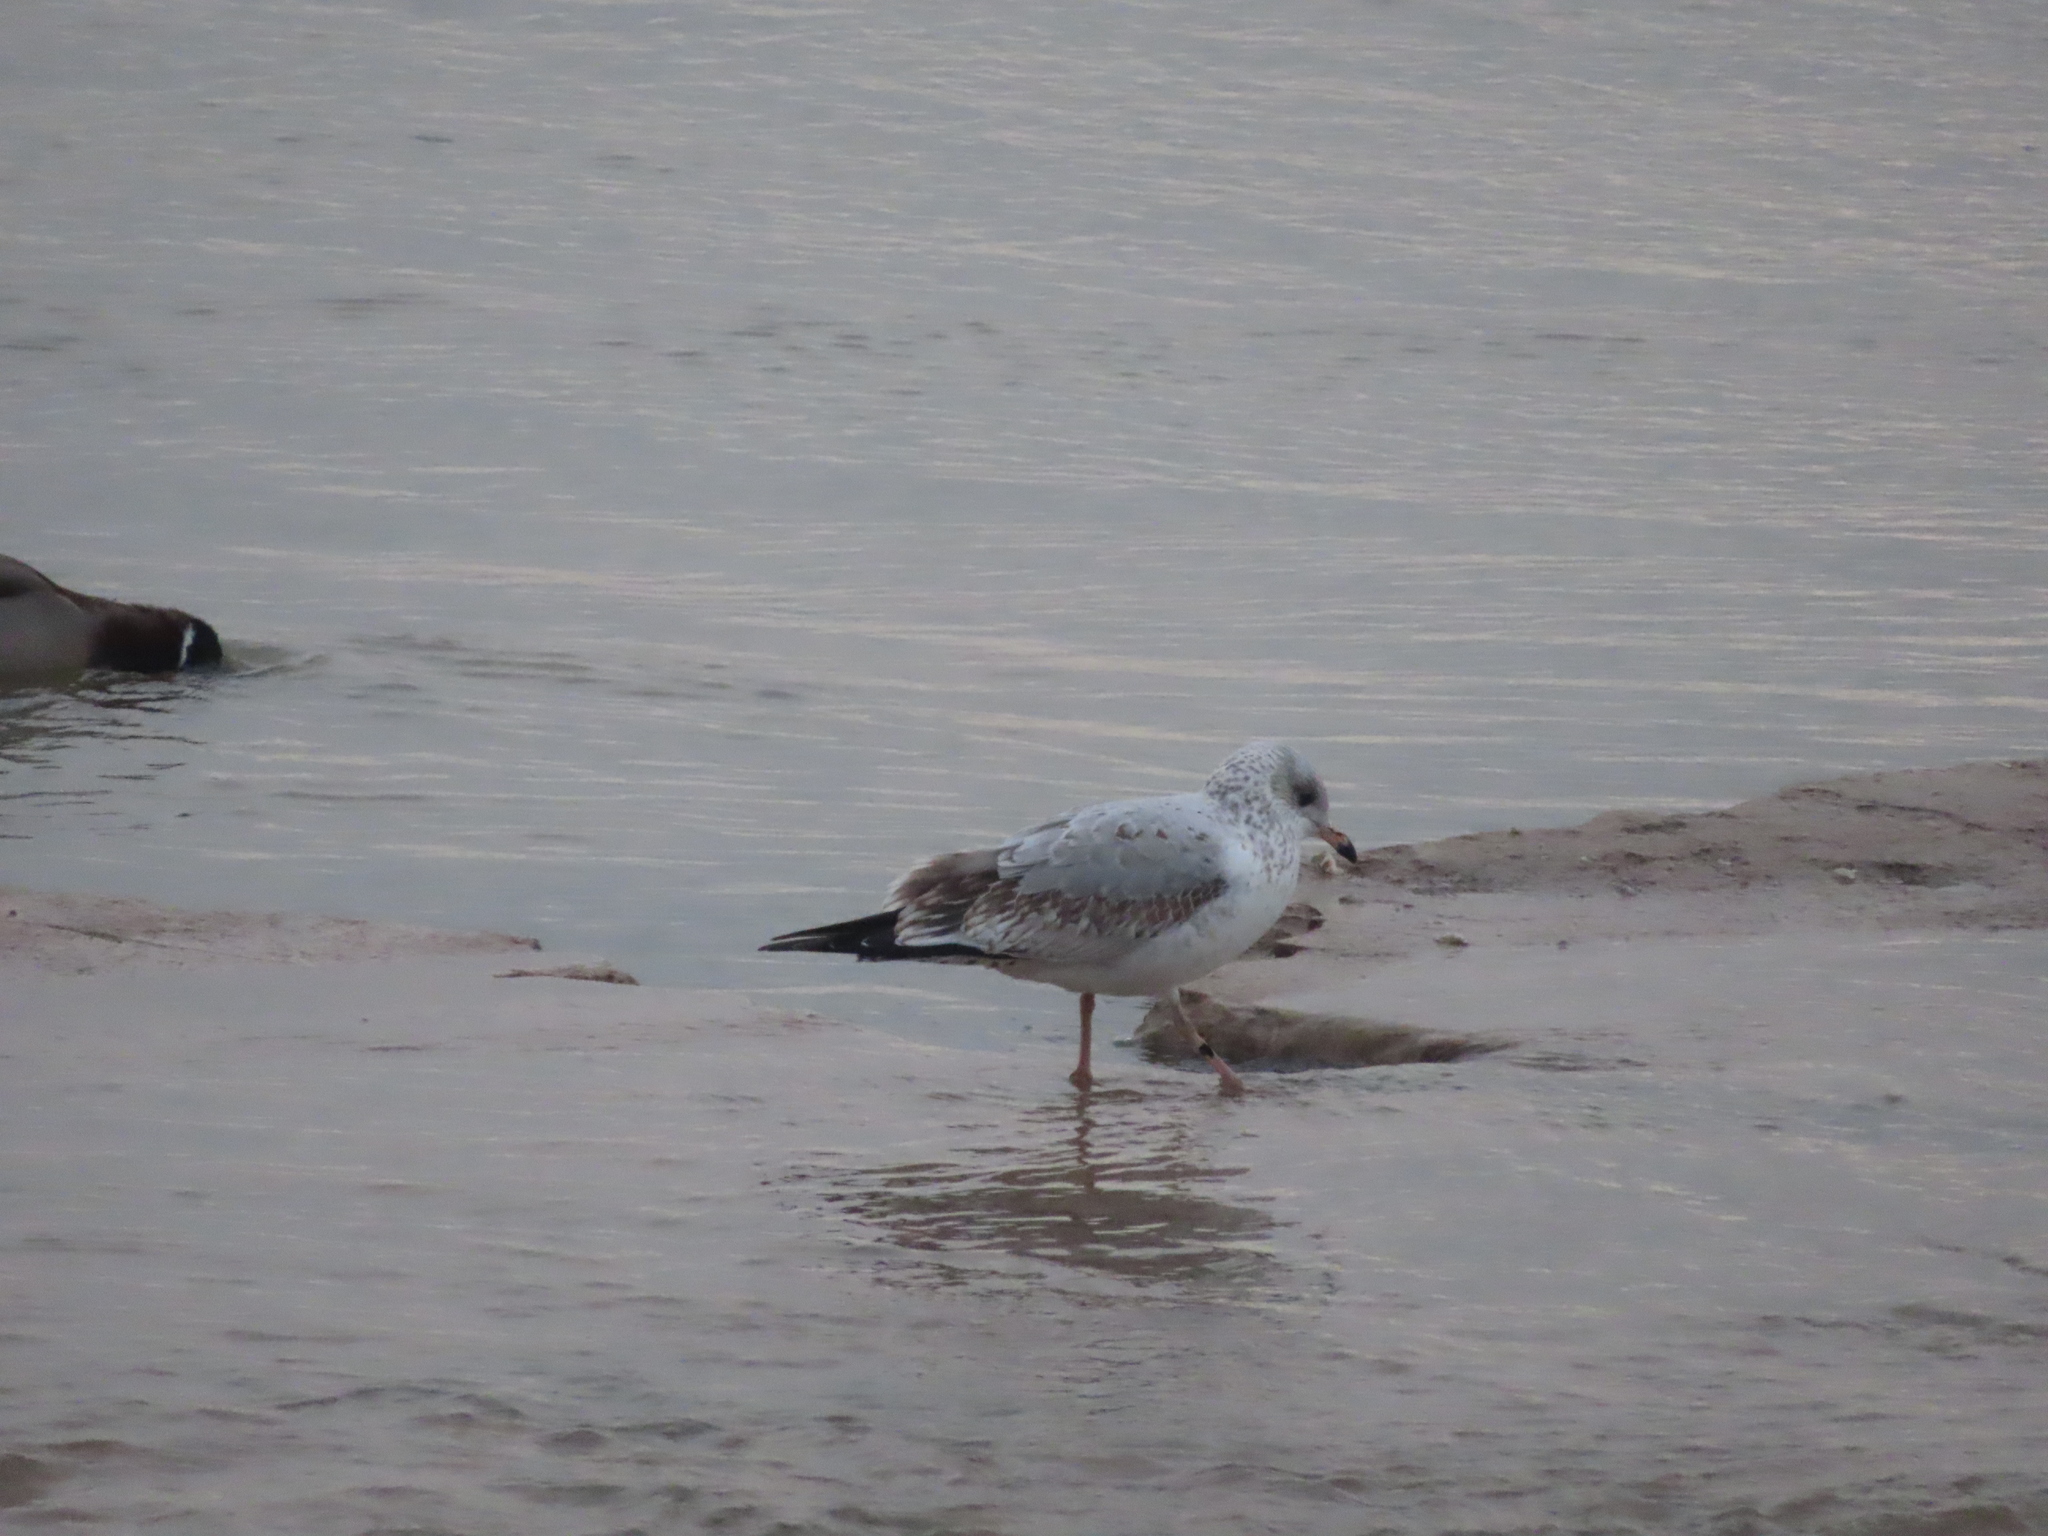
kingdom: Animalia
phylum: Chordata
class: Aves
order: Charadriiformes
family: Laridae
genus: Larus
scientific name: Larus delawarensis
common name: Ring-billed gull
